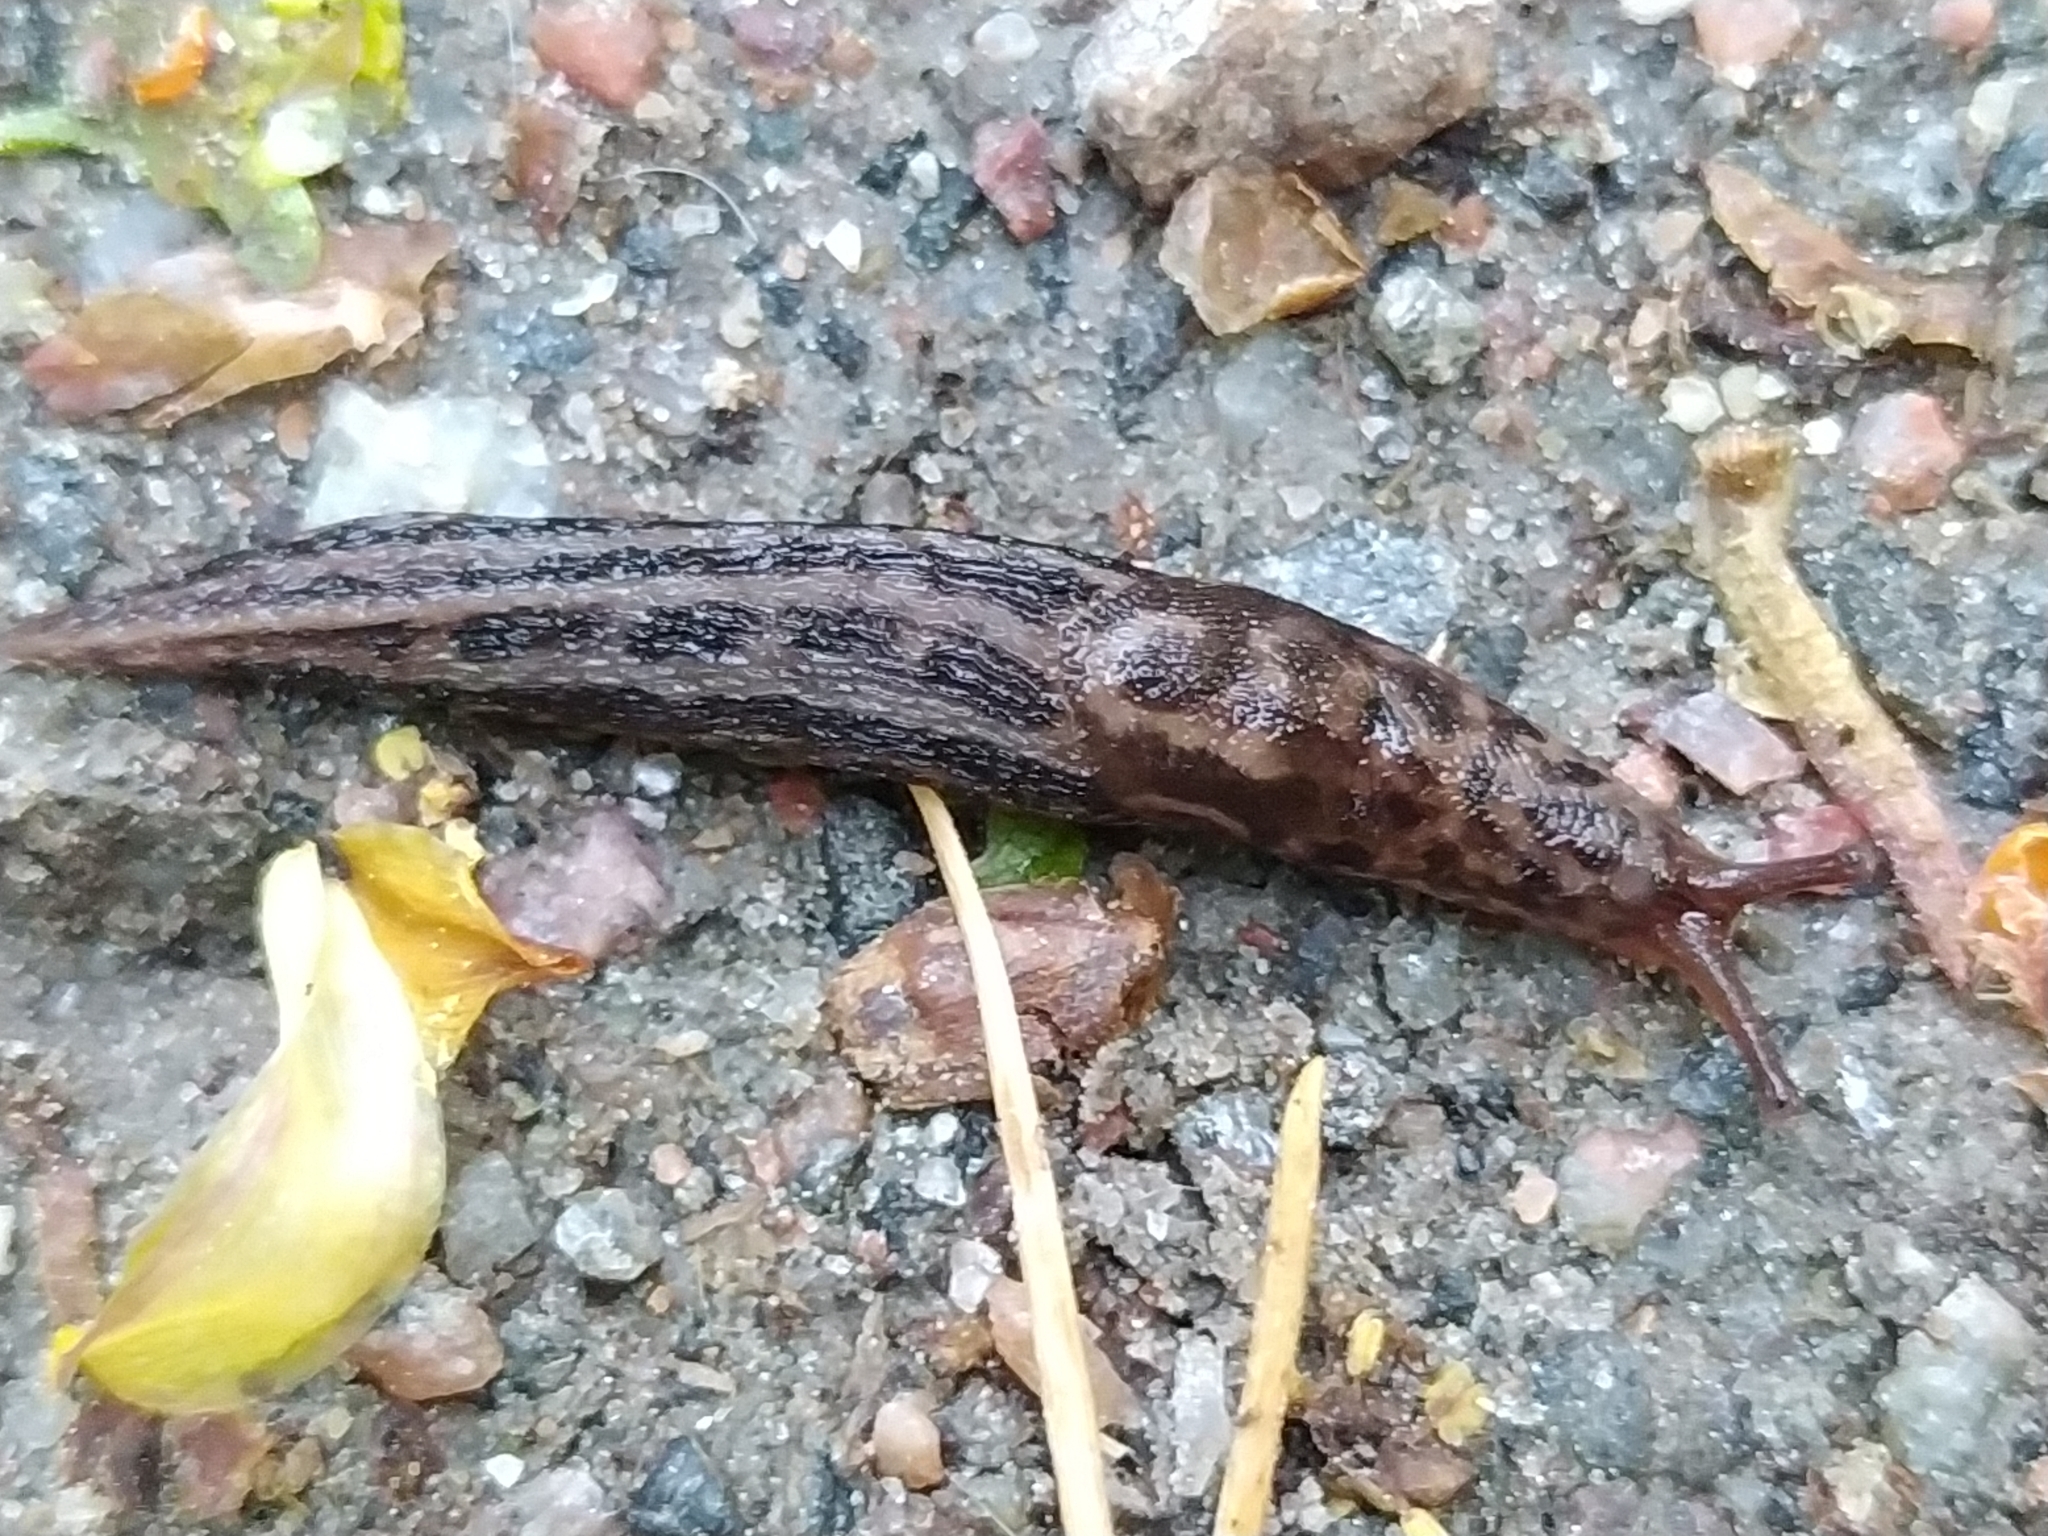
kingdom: Animalia
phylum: Mollusca
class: Gastropoda
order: Stylommatophora
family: Limacidae
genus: Limax
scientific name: Limax maximus
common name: Great grey slug
